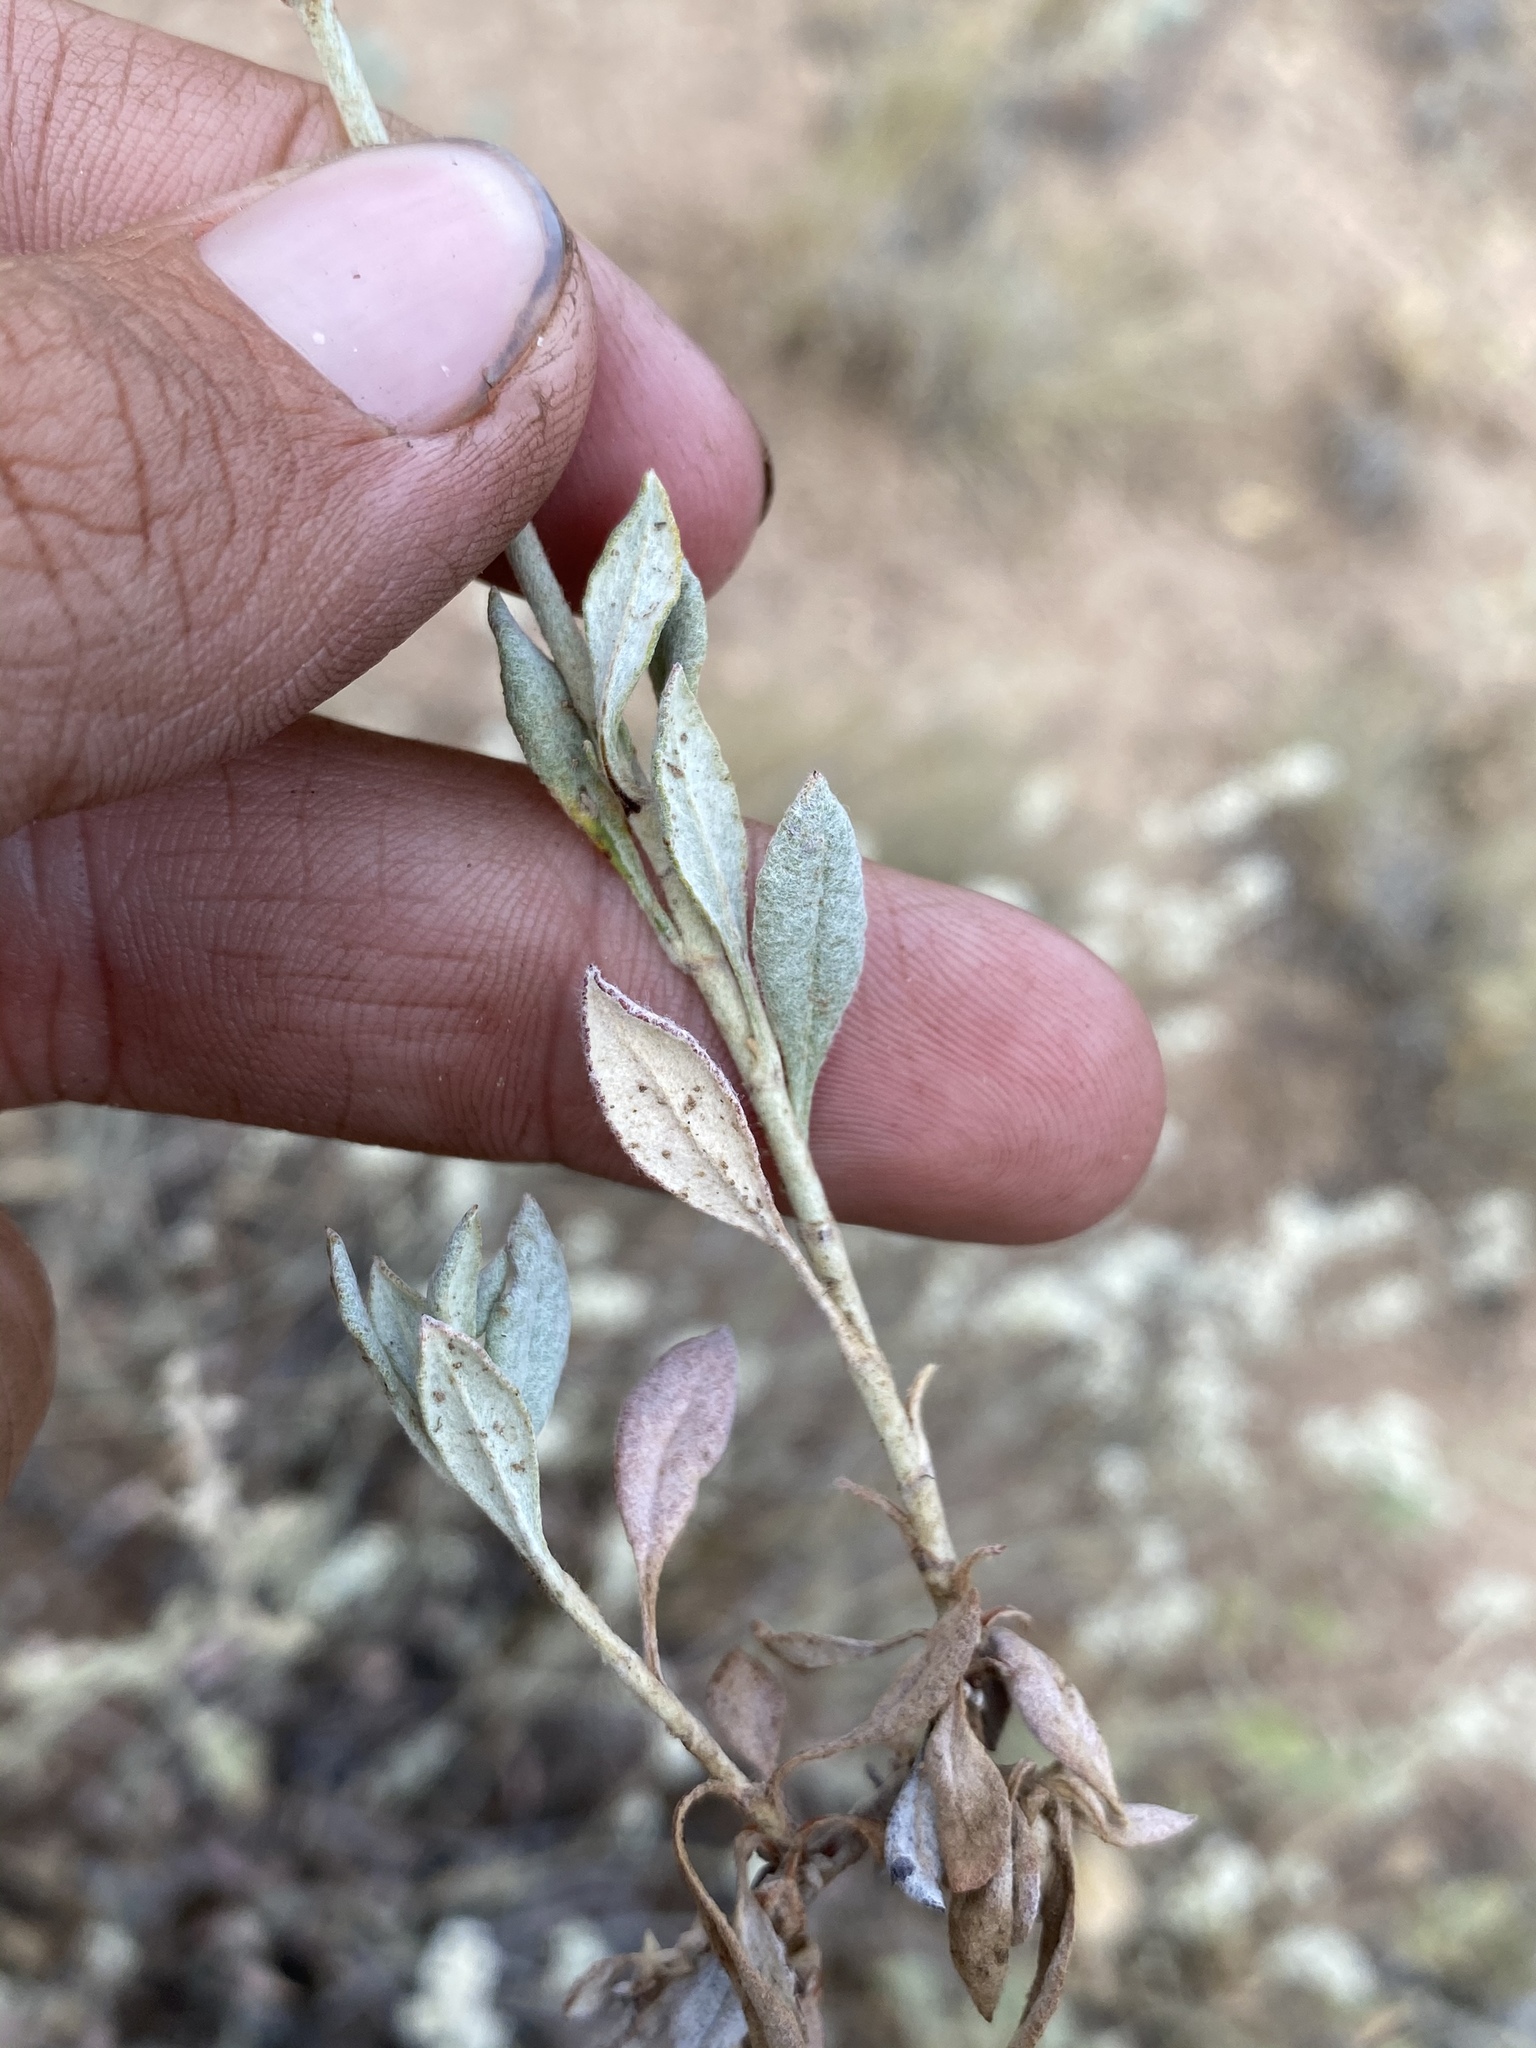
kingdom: Plantae
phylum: Tracheophyta
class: Magnoliopsida
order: Caryophyllales
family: Polygonaceae
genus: Eriogonum
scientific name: Eriogonum wrightii
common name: Bastard-sage
